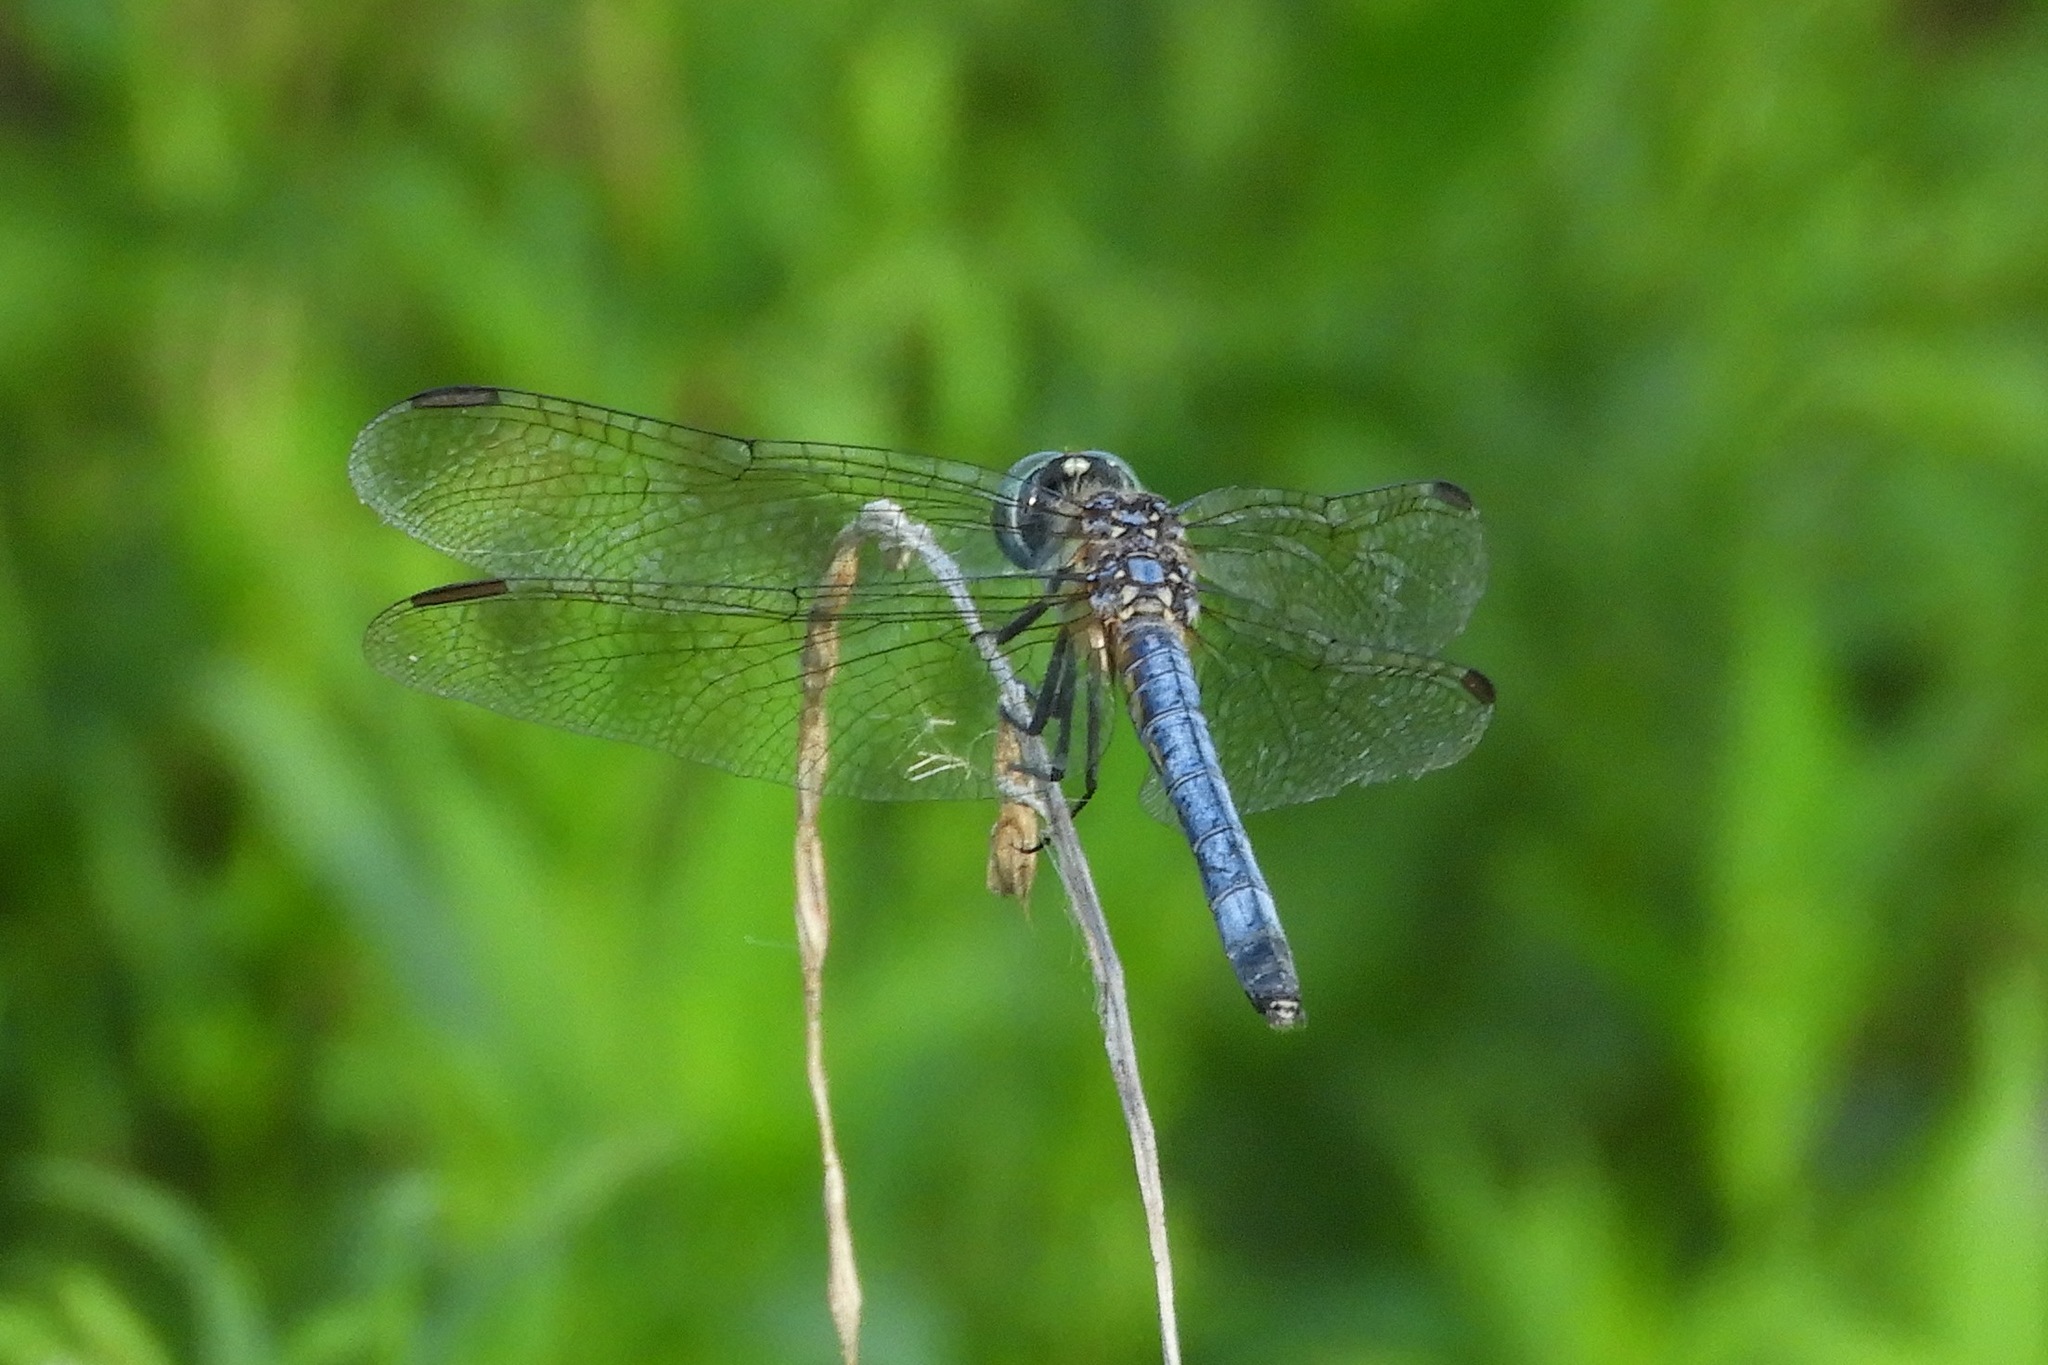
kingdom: Animalia
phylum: Arthropoda
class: Insecta
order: Odonata
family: Libellulidae
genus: Pachydiplax
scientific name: Pachydiplax longipennis
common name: Blue dasher
